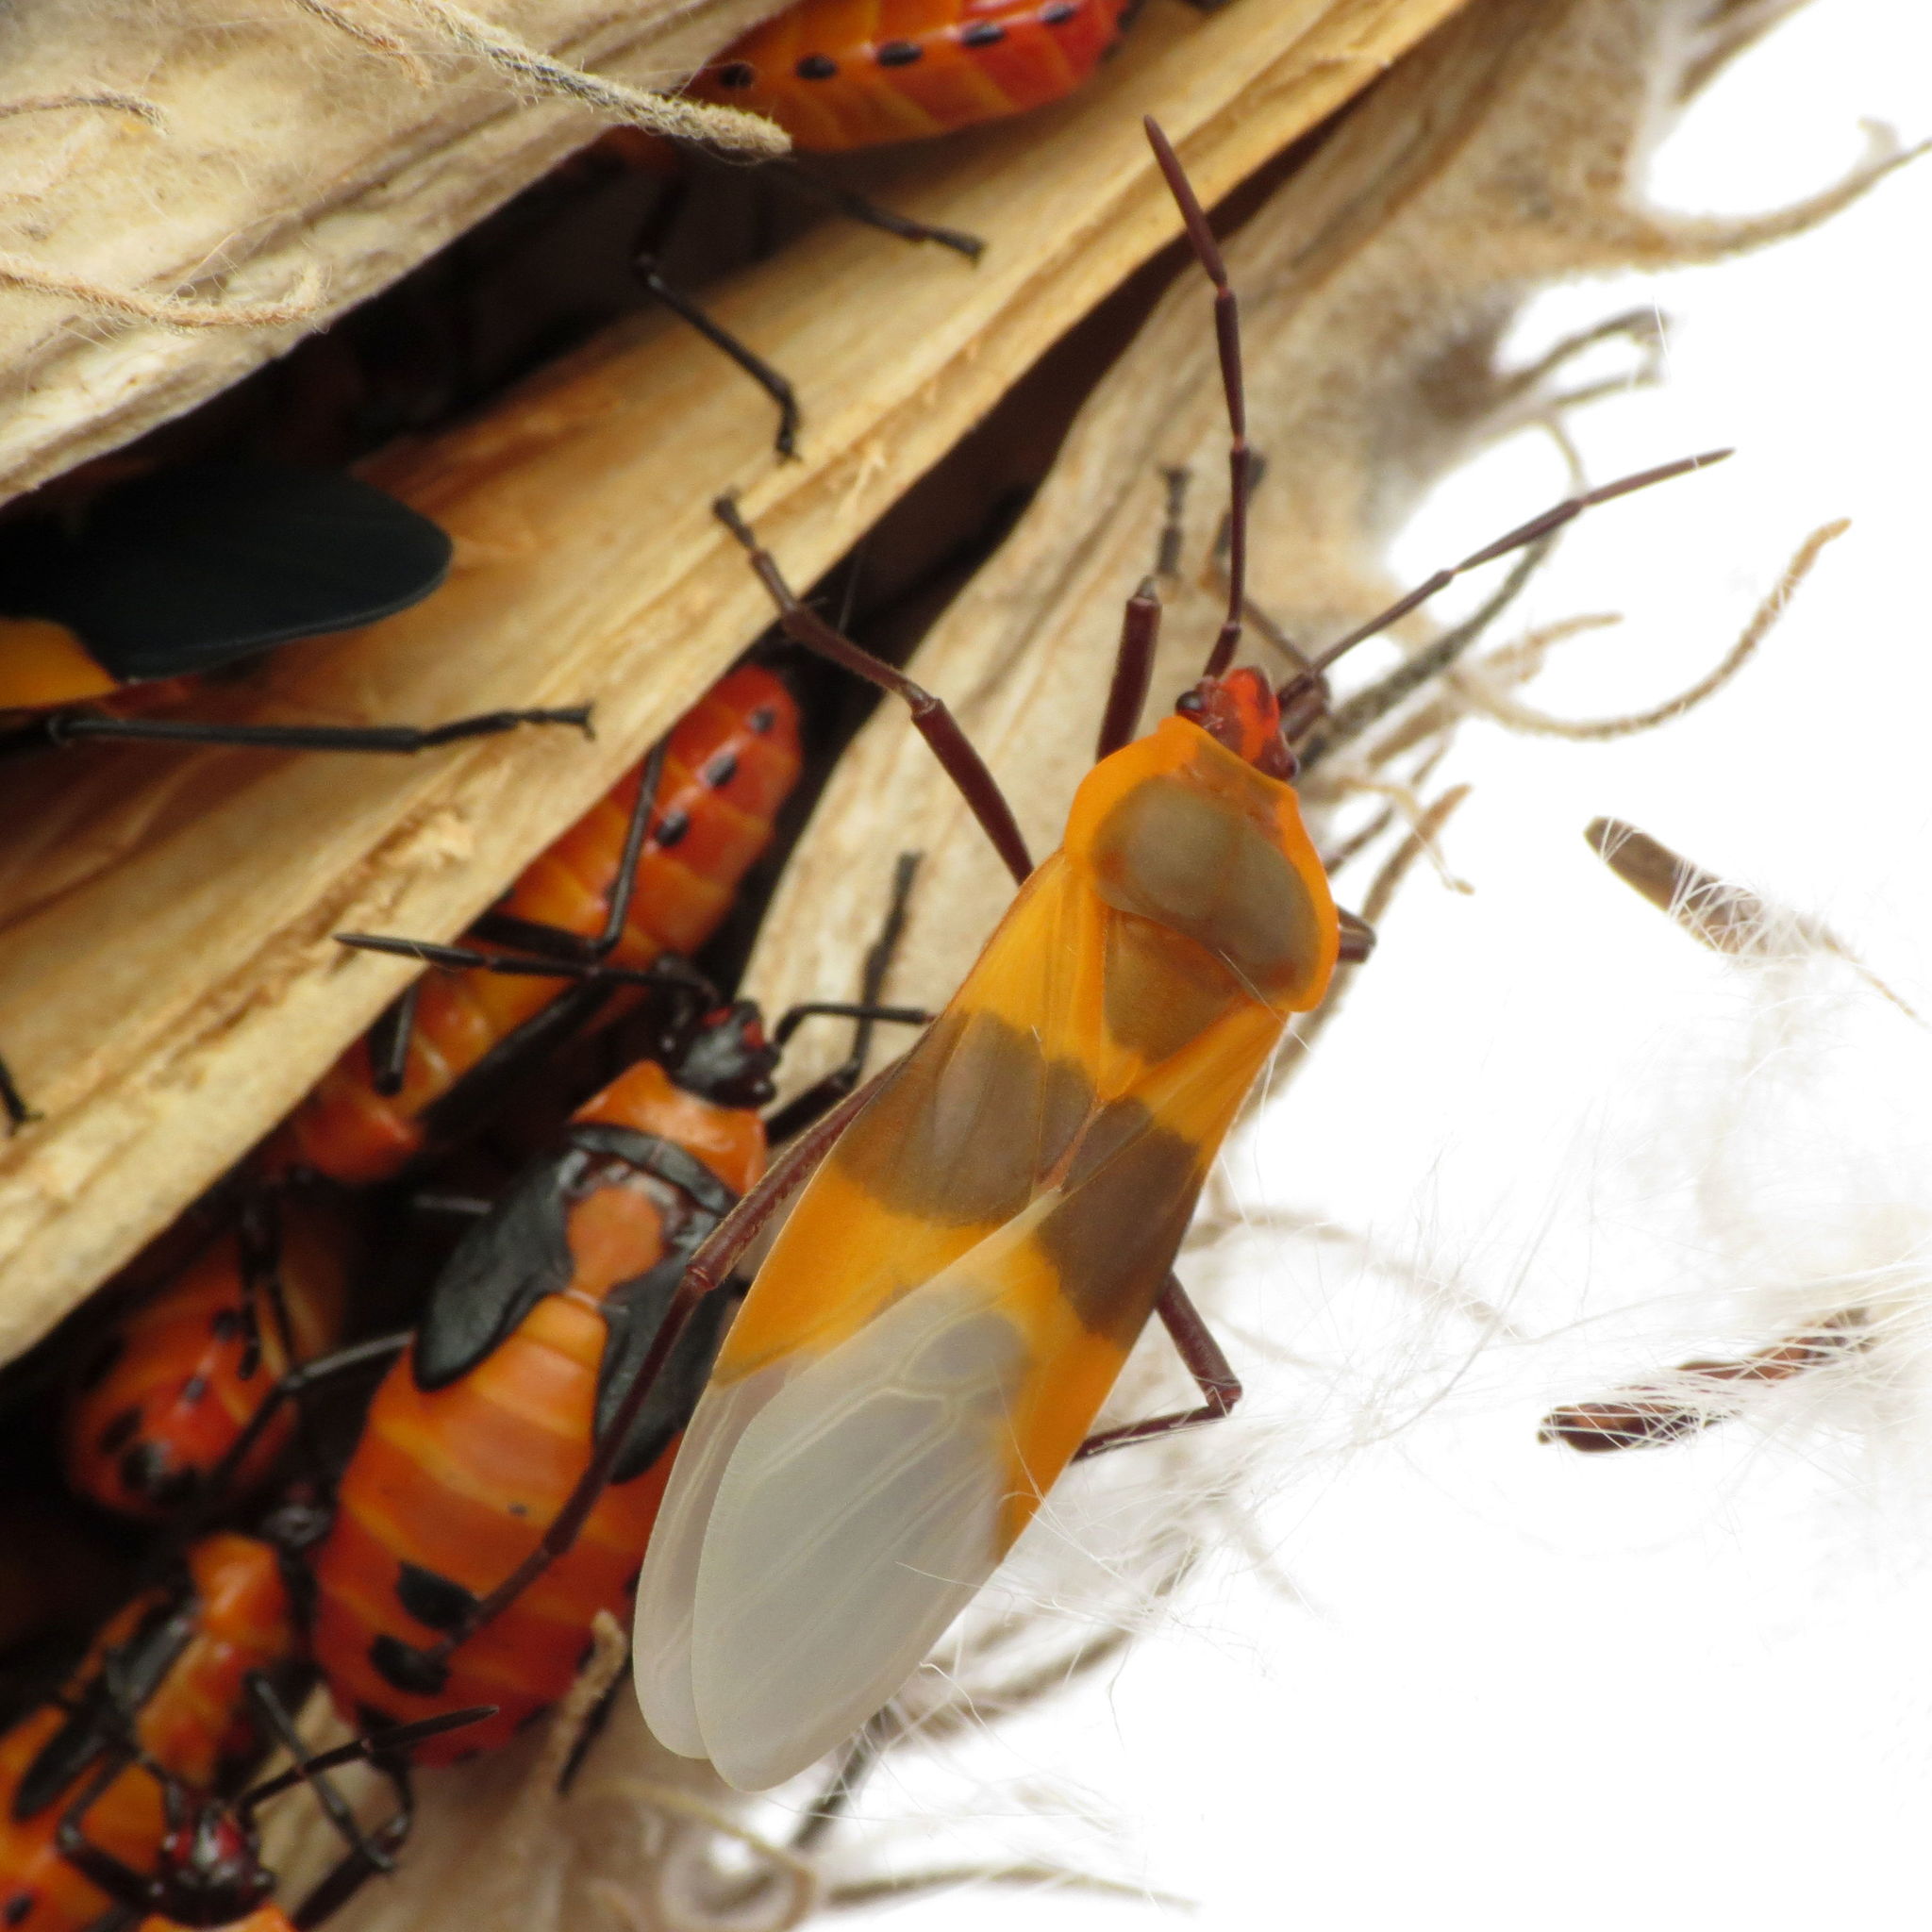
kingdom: Animalia
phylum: Arthropoda
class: Insecta
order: Hemiptera
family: Lygaeidae
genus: Oncopeltus
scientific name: Oncopeltus fasciatus
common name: Large milkweed bug
